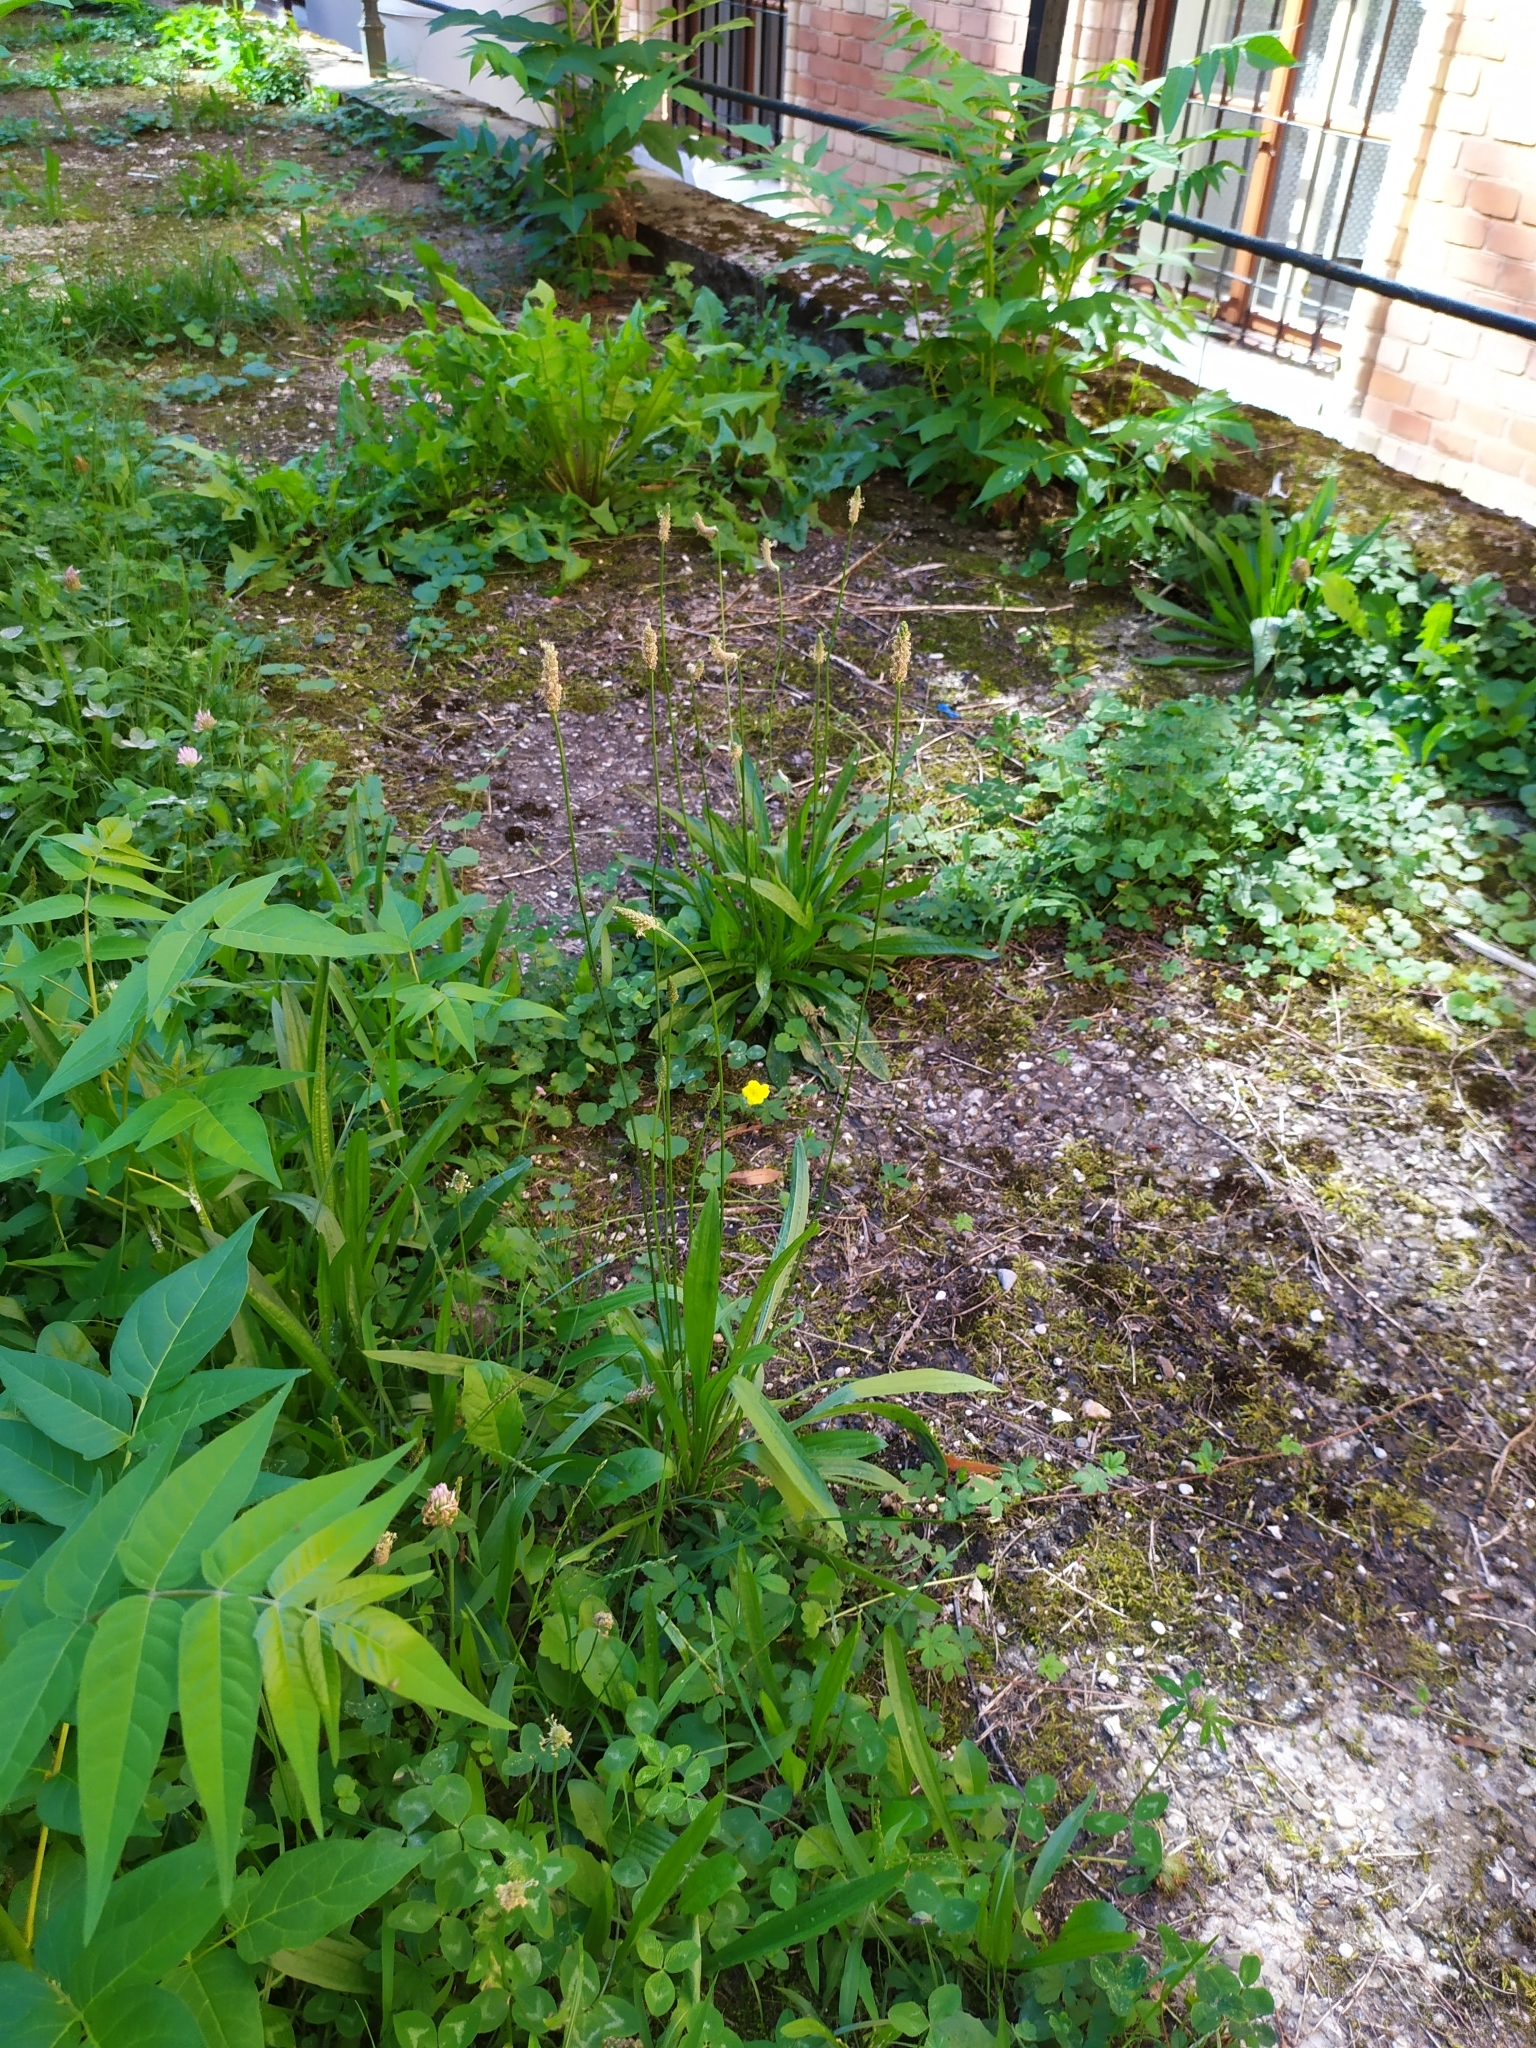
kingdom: Plantae
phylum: Tracheophyta
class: Magnoliopsida
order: Lamiales
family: Plantaginaceae
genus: Plantago
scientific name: Plantago lanceolata
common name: Ribwort plantain
